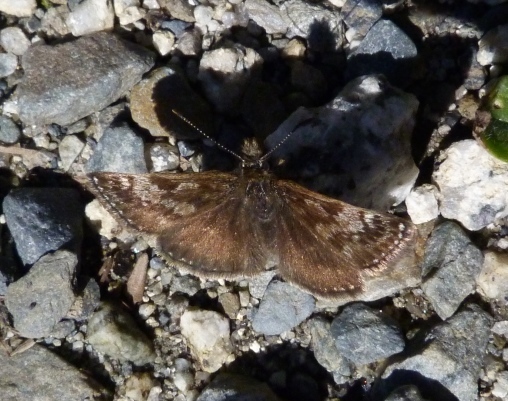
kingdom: Animalia
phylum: Arthropoda
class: Insecta
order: Lepidoptera
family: Hesperiidae
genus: Erynnis
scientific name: Erynnis tages
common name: Dingy skipper
